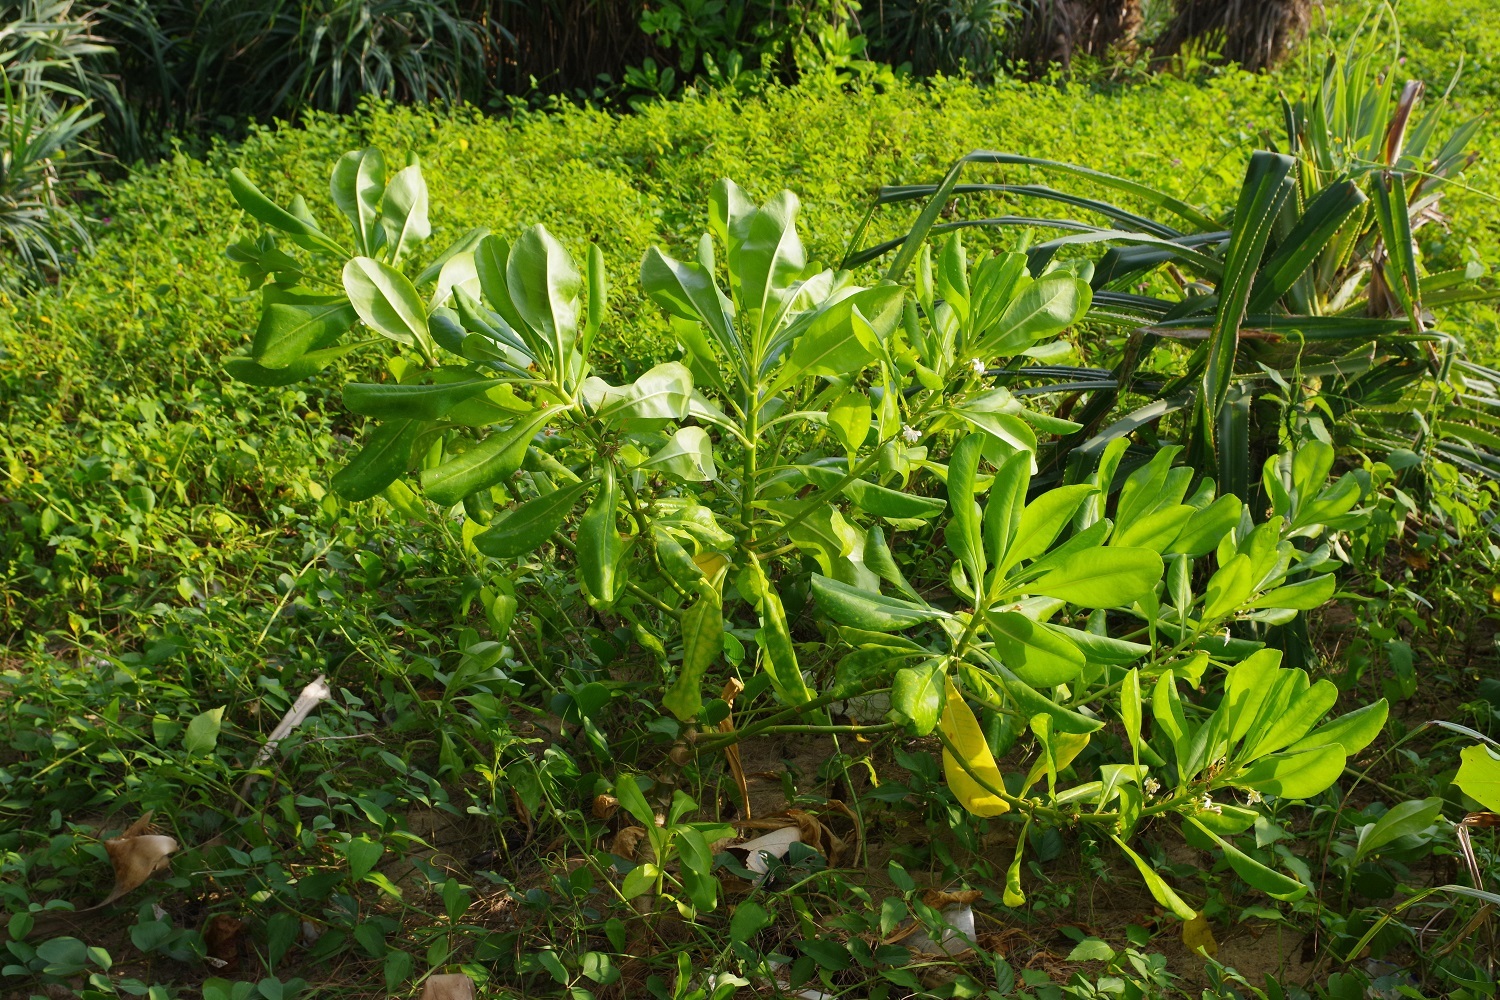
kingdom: Plantae
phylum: Tracheophyta
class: Magnoliopsida
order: Asterales
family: Goodeniaceae
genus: Scaevola
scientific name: Scaevola taccada
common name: Sea lettucetree
